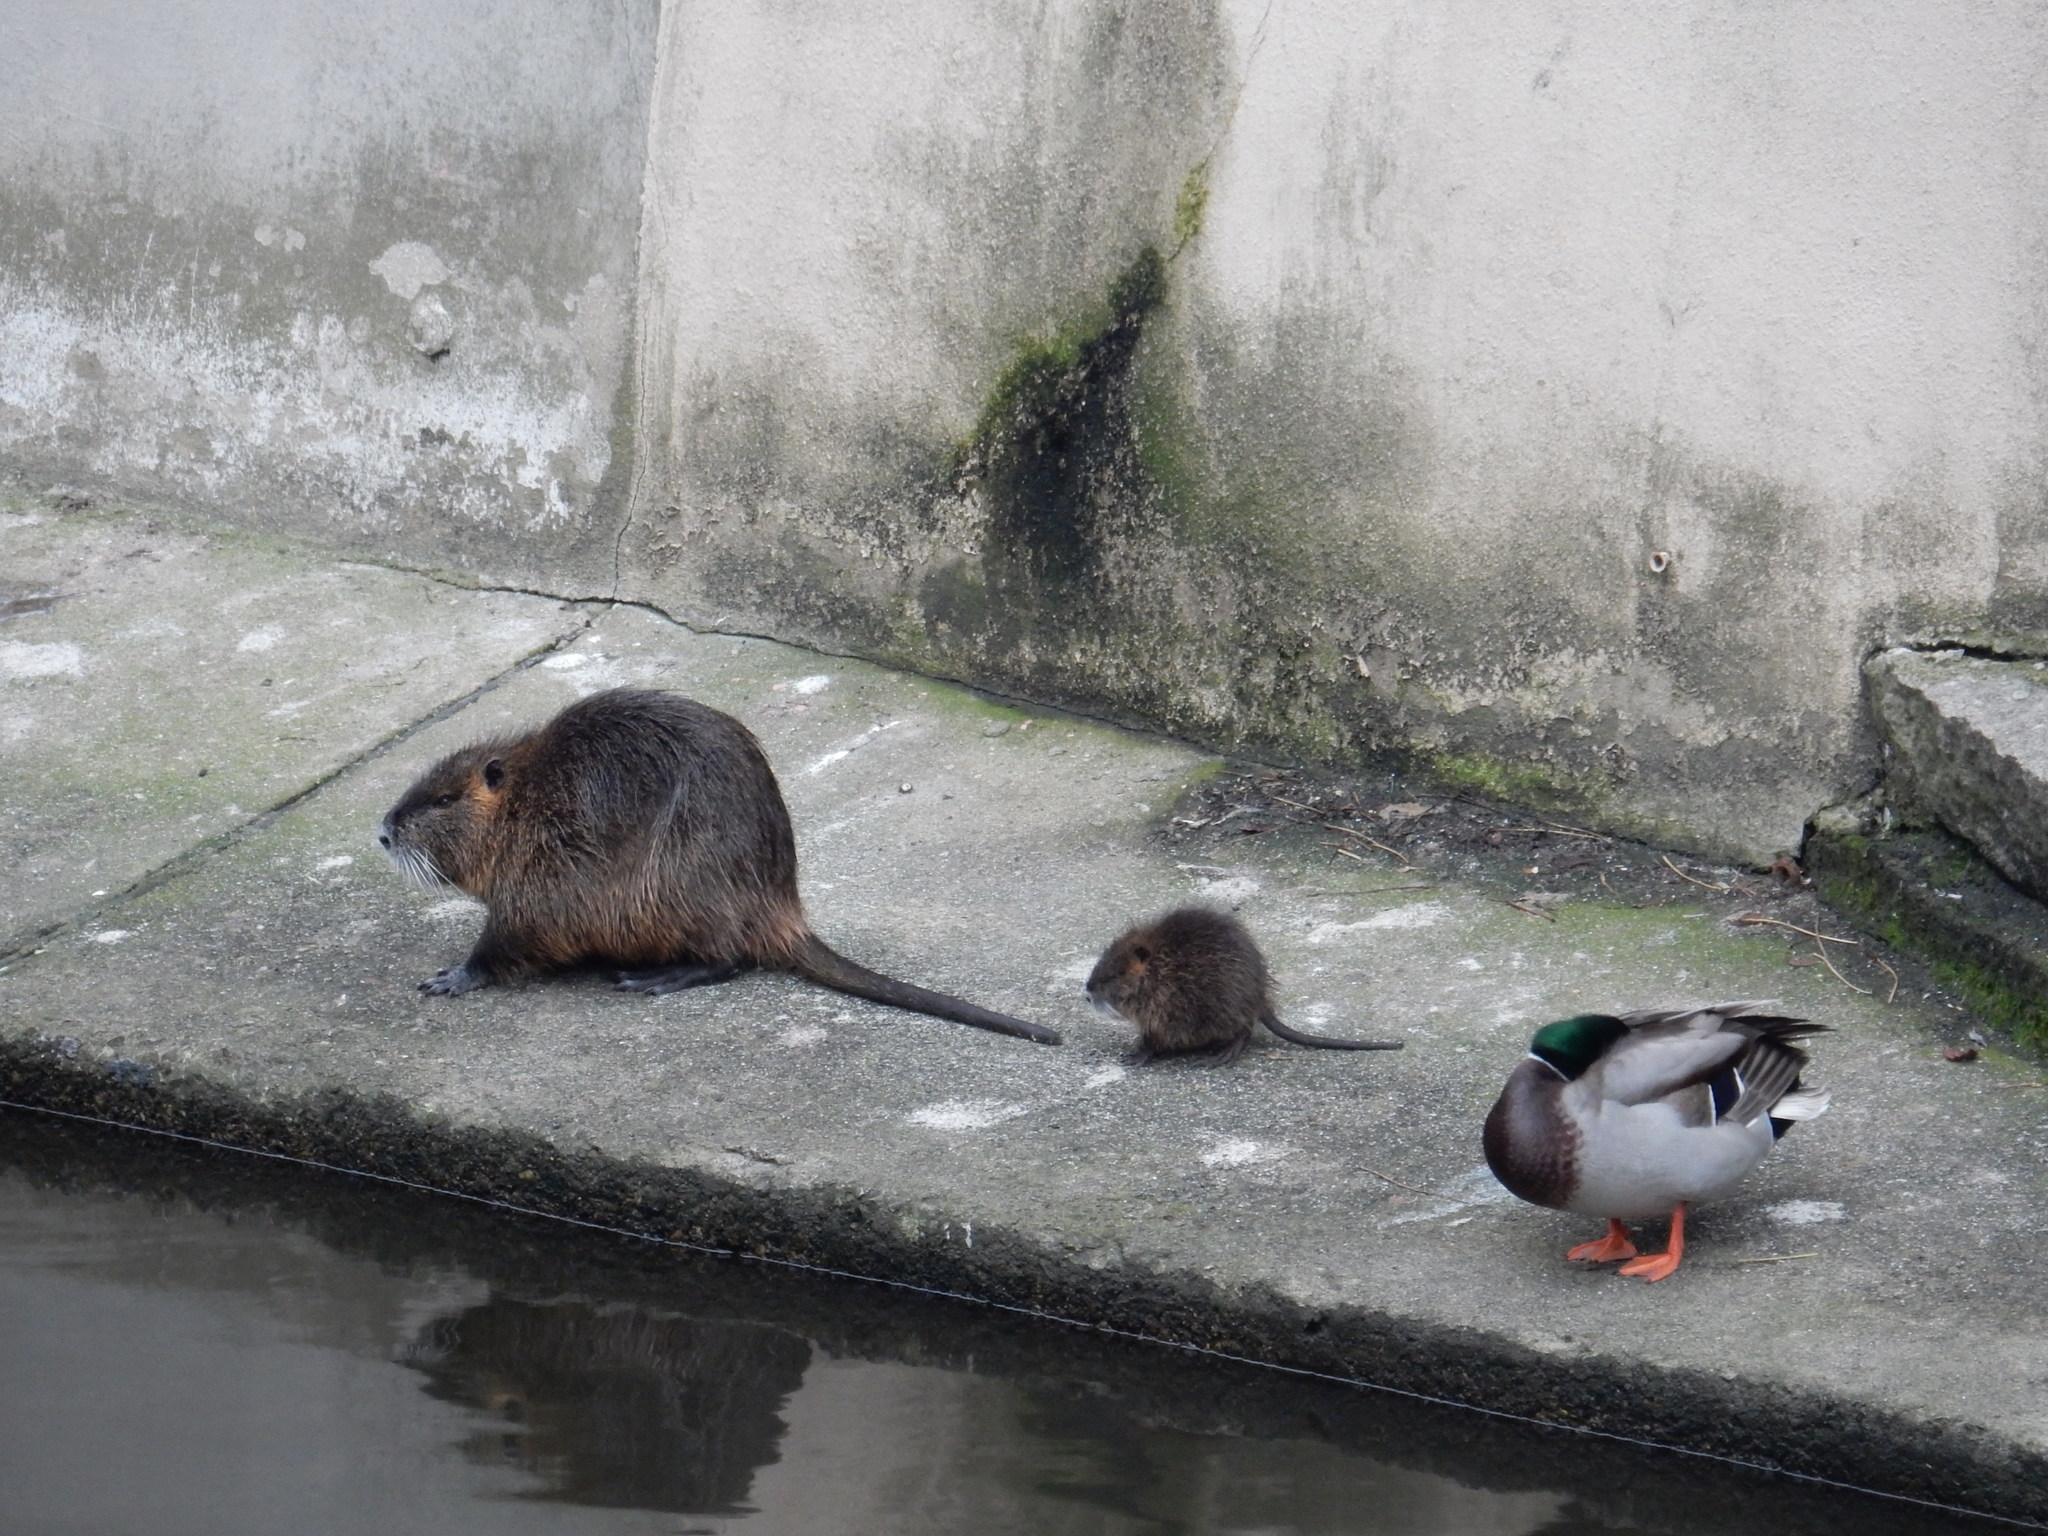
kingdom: Animalia
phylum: Chordata
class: Mammalia
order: Rodentia
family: Myocastoridae
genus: Myocastor
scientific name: Myocastor coypus
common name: Coypu
